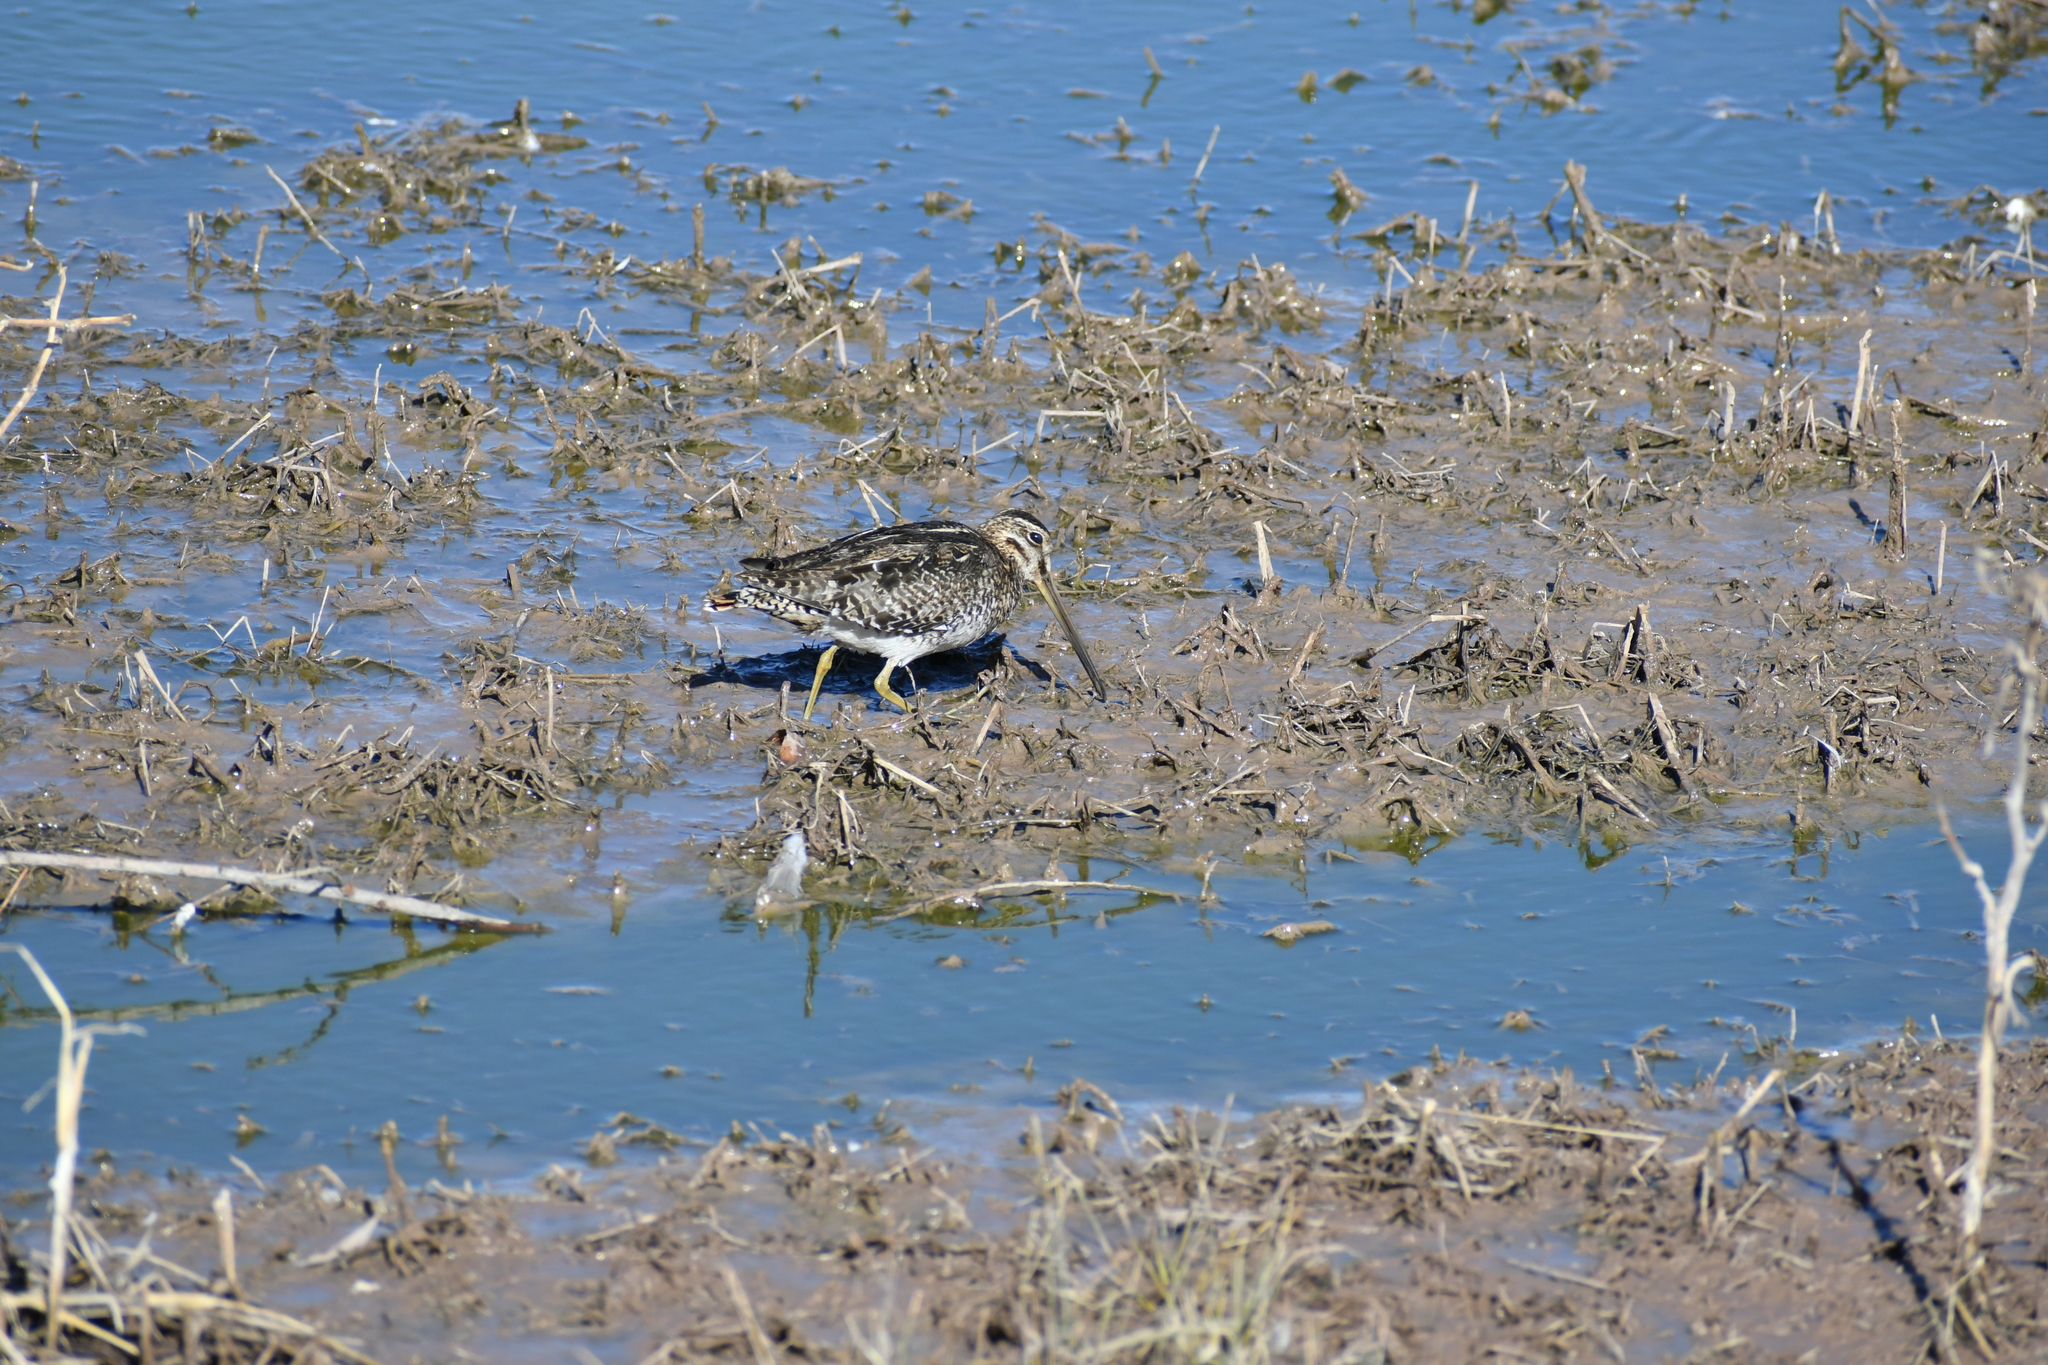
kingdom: Animalia
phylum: Chordata
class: Aves
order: Charadriiformes
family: Scolopacidae
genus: Gallinago
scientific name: Gallinago delicata
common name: Wilson's snipe
